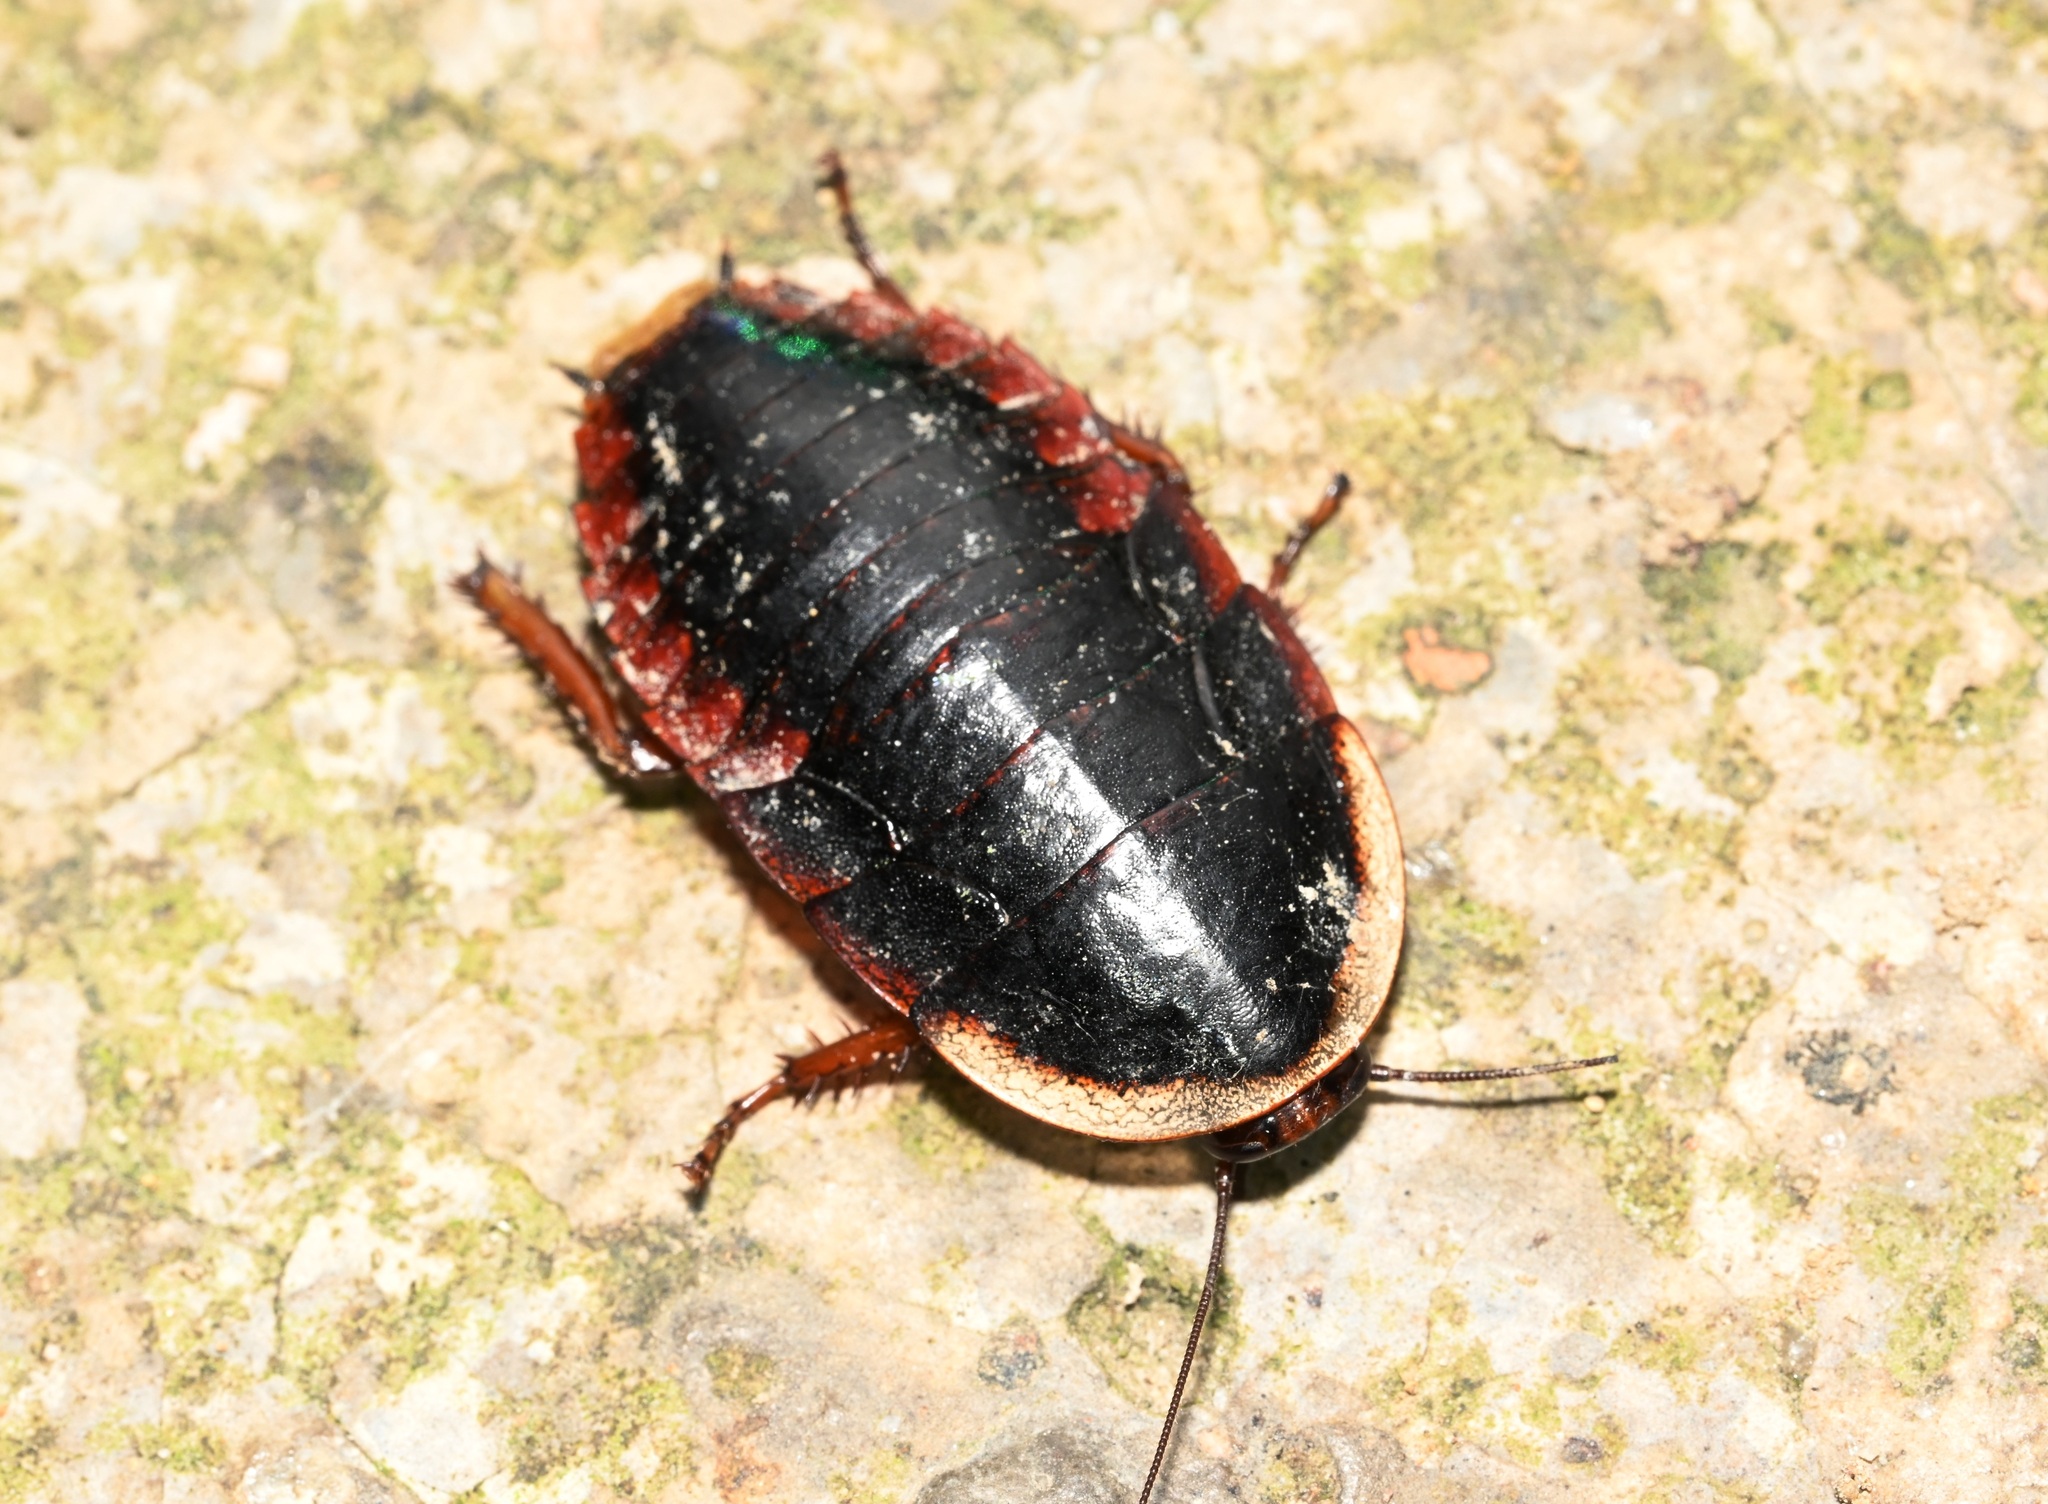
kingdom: Animalia
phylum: Arthropoda
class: Insecta
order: Blattodea
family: Blaberidae
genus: Opisthoplatia
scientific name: Opisthoplatia orientalis
